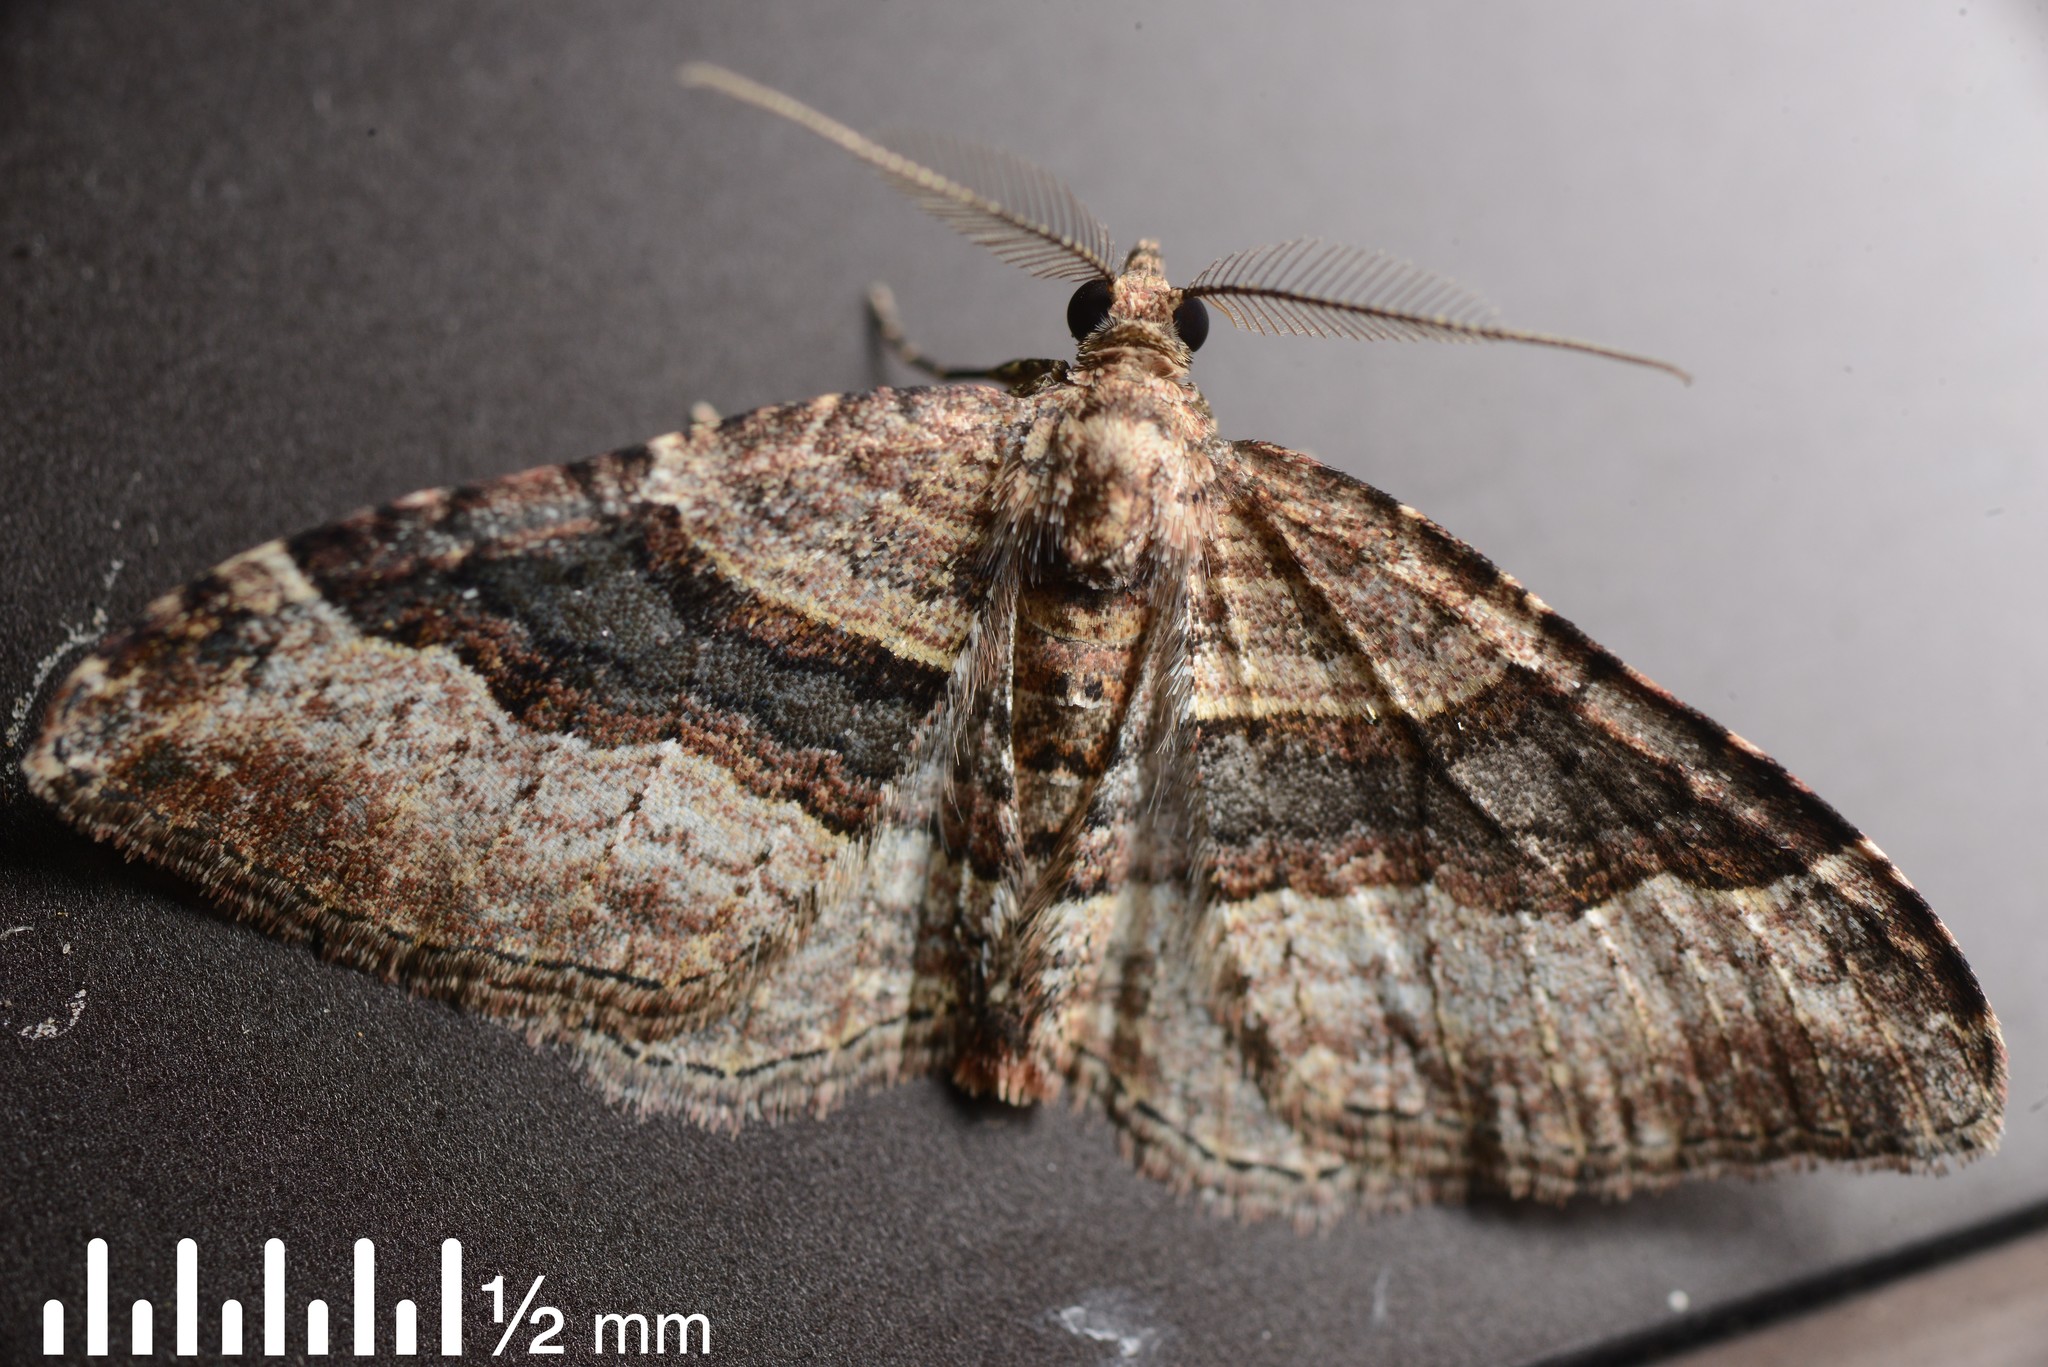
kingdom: Animalia
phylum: Arthropoda
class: Insecta
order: Lepidoptera
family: Geometridae
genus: Epyaxa
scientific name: Epyaxa lucidata
